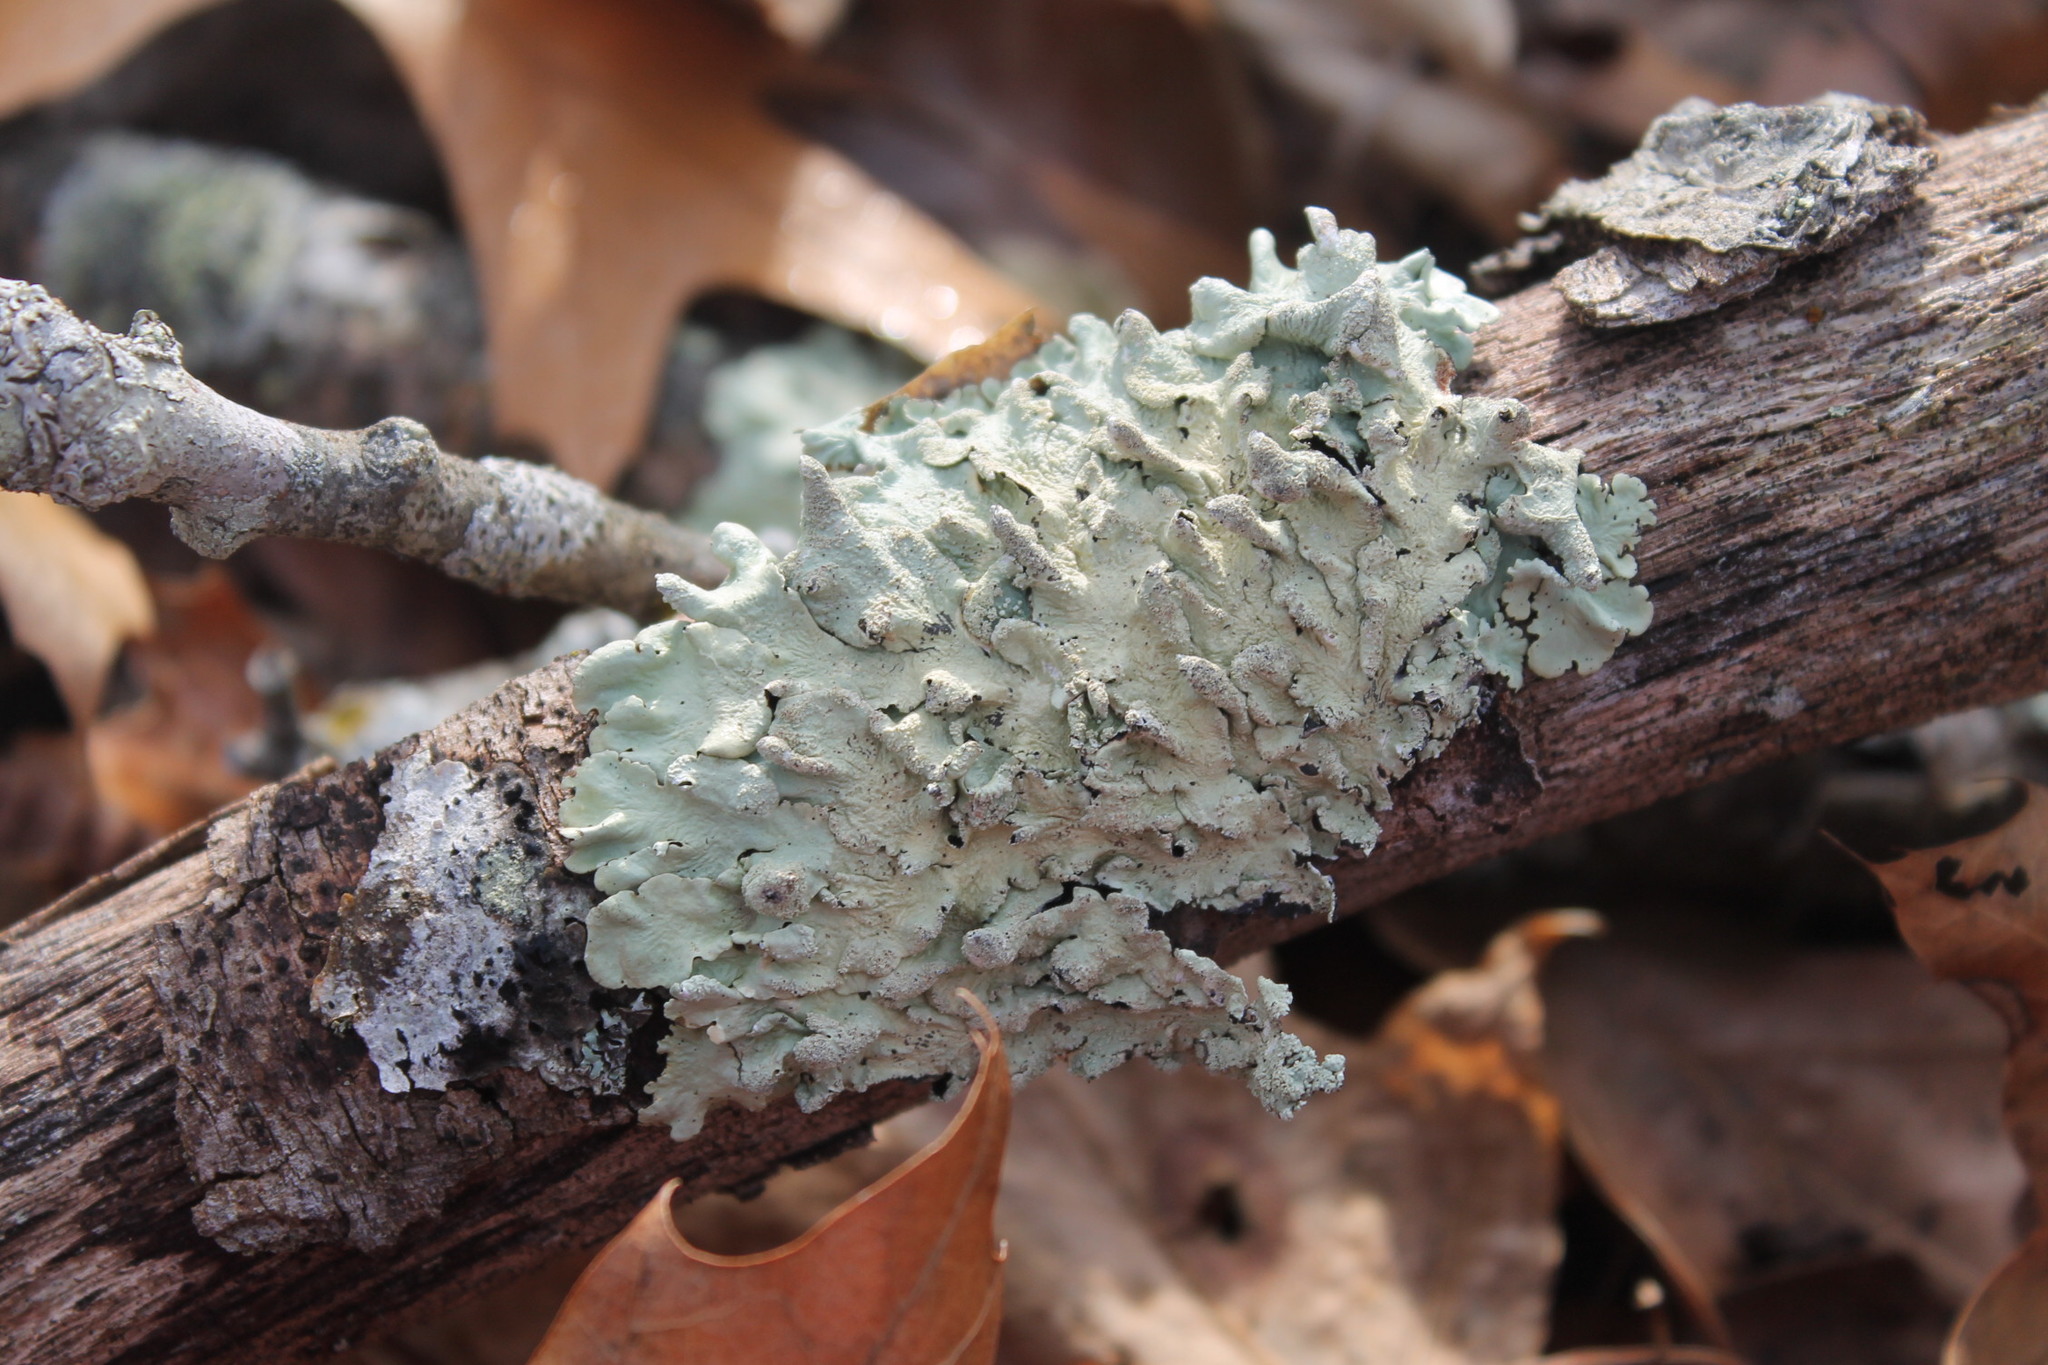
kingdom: Fungi
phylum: Ascomycota
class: Lecanoromycetes
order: Lecanorales
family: Parmeliaceae
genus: Flavoparmelia
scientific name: Flavoparmelia caperata
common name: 40-mile per hour lichen
